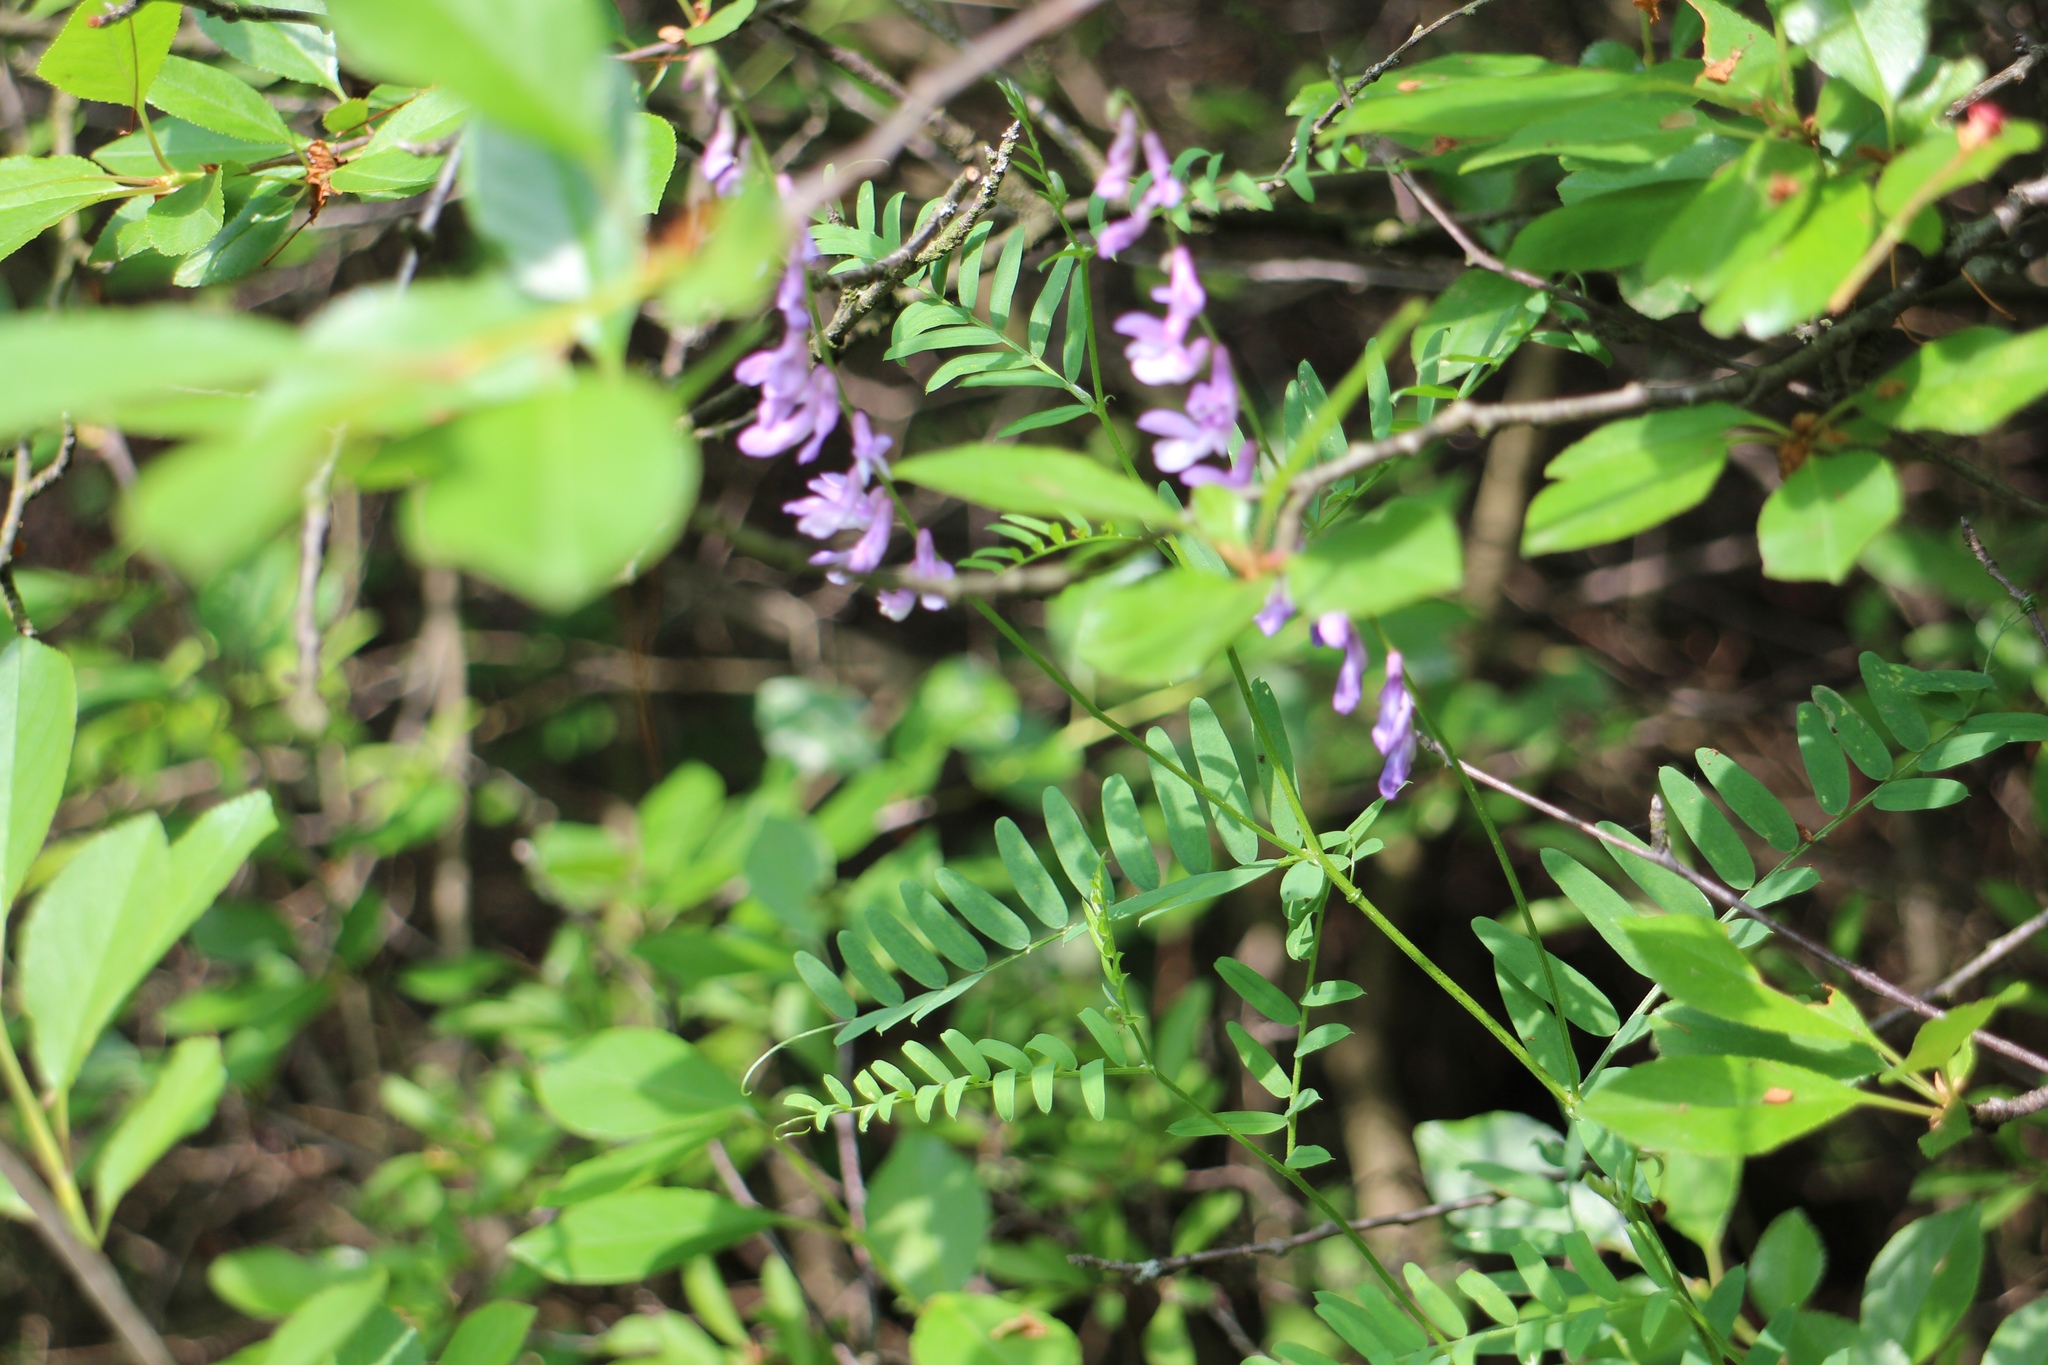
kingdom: Plantae
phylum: Tracheophyta
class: Magnoliopsida
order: Fabales
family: Fabaceae
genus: Vicia
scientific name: Vicia cracca
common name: Bird vetch
